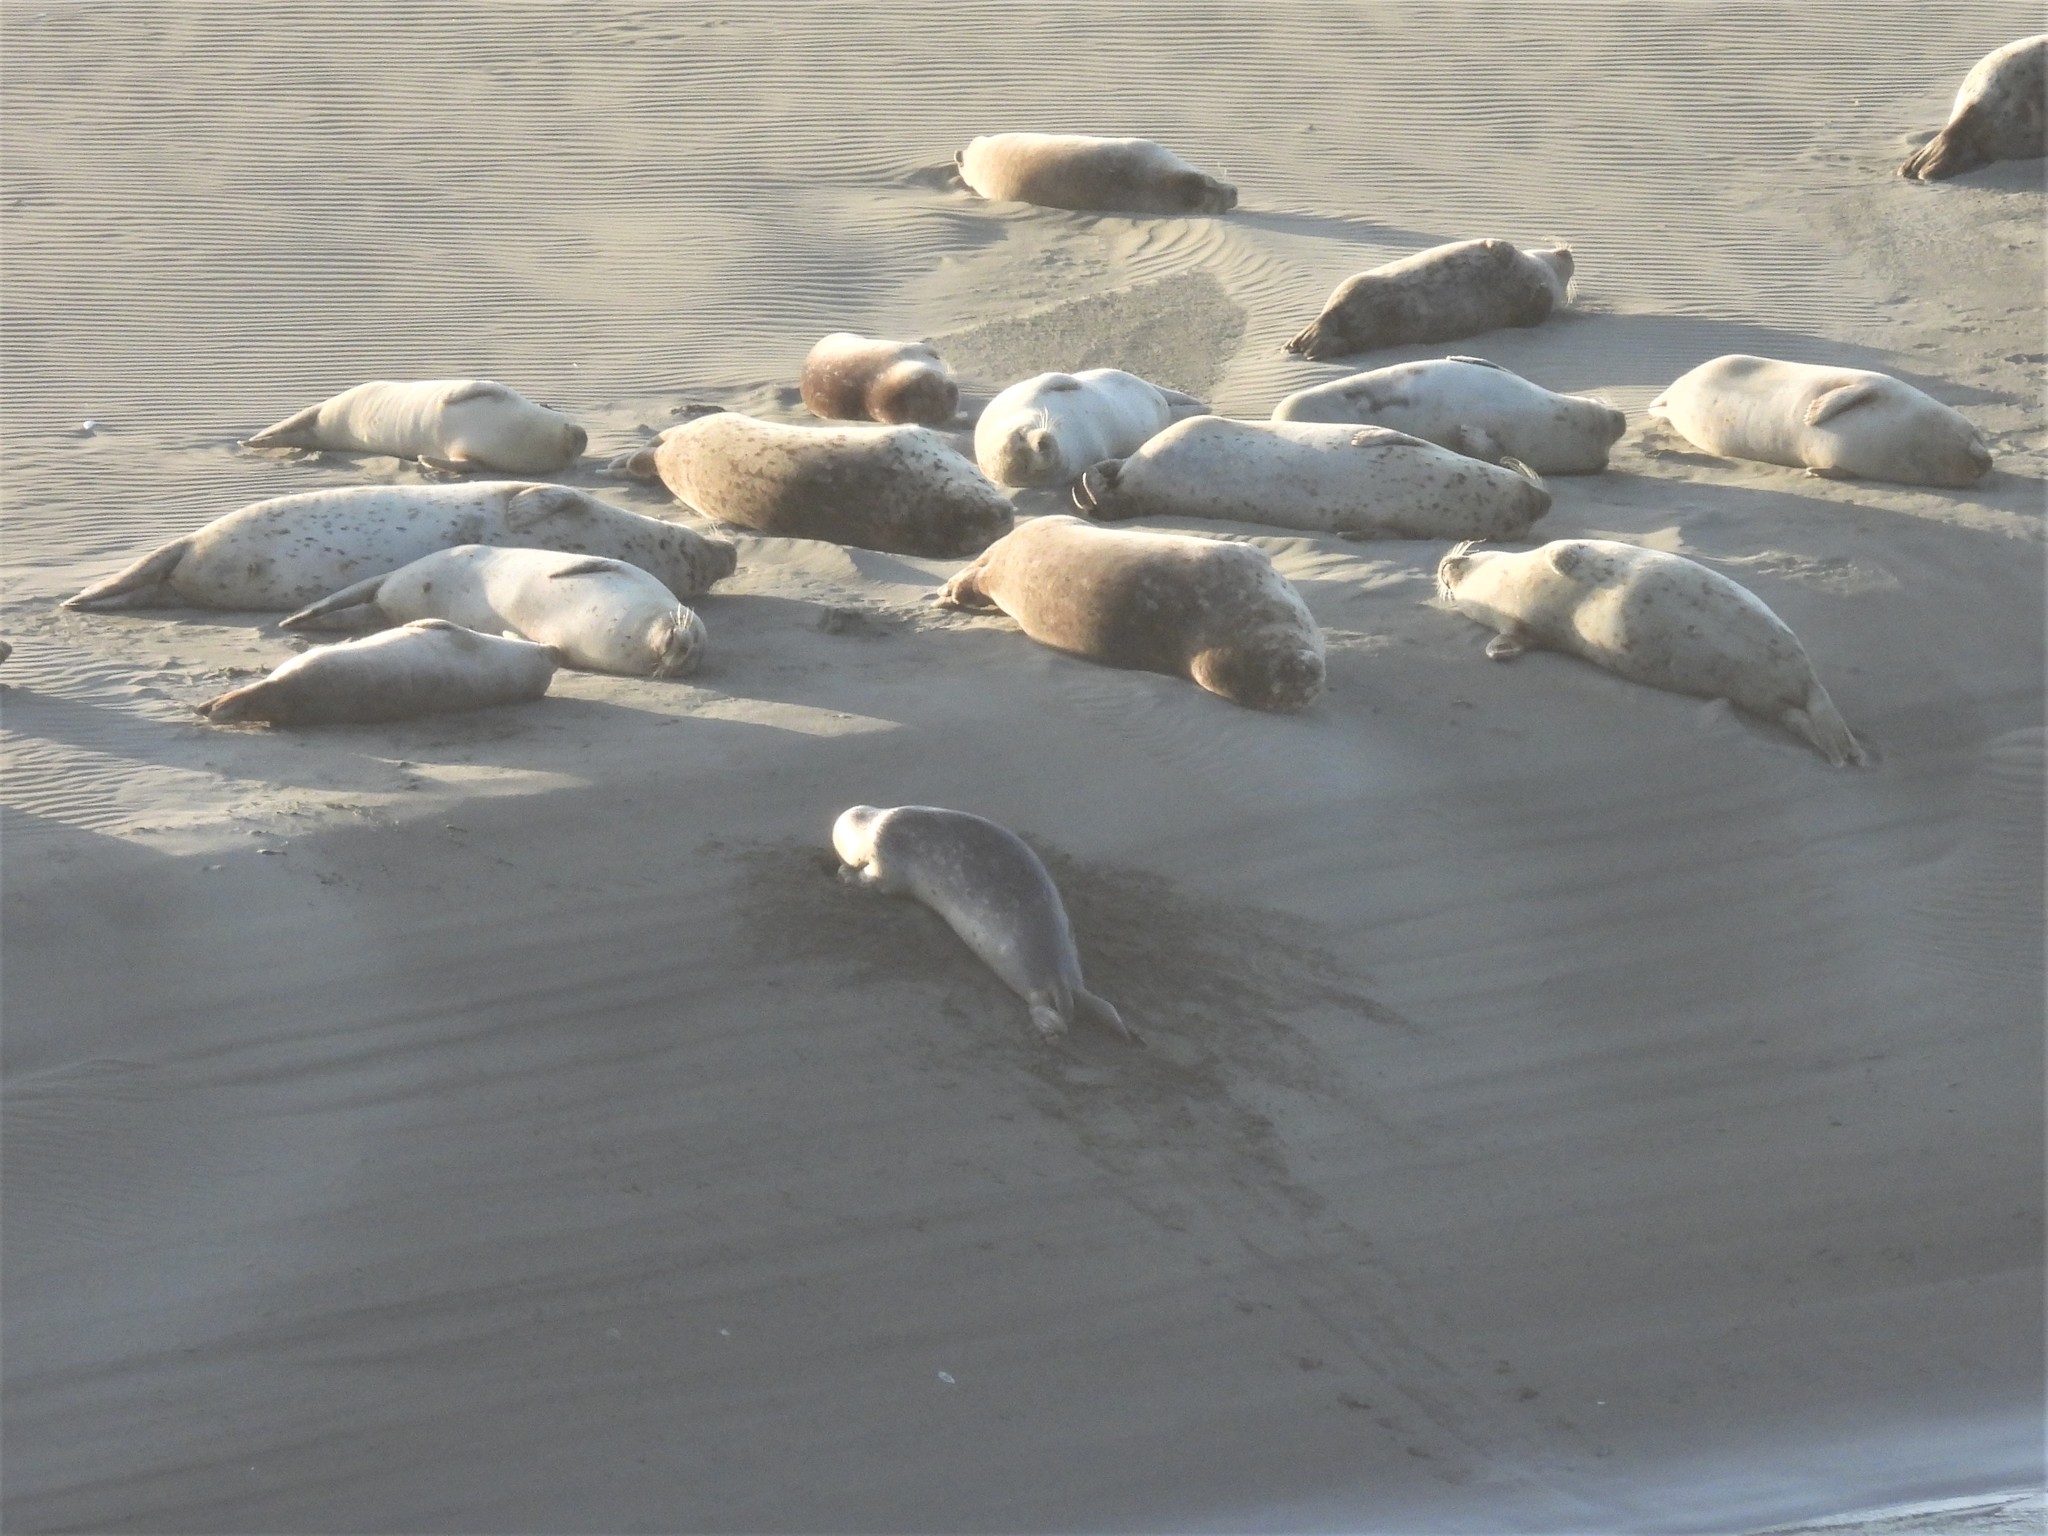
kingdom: Animalia
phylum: Chordata
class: Mammalia
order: Carnivora
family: Phocidae
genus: Phoca
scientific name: Phoca vitulina
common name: Harbor seal
